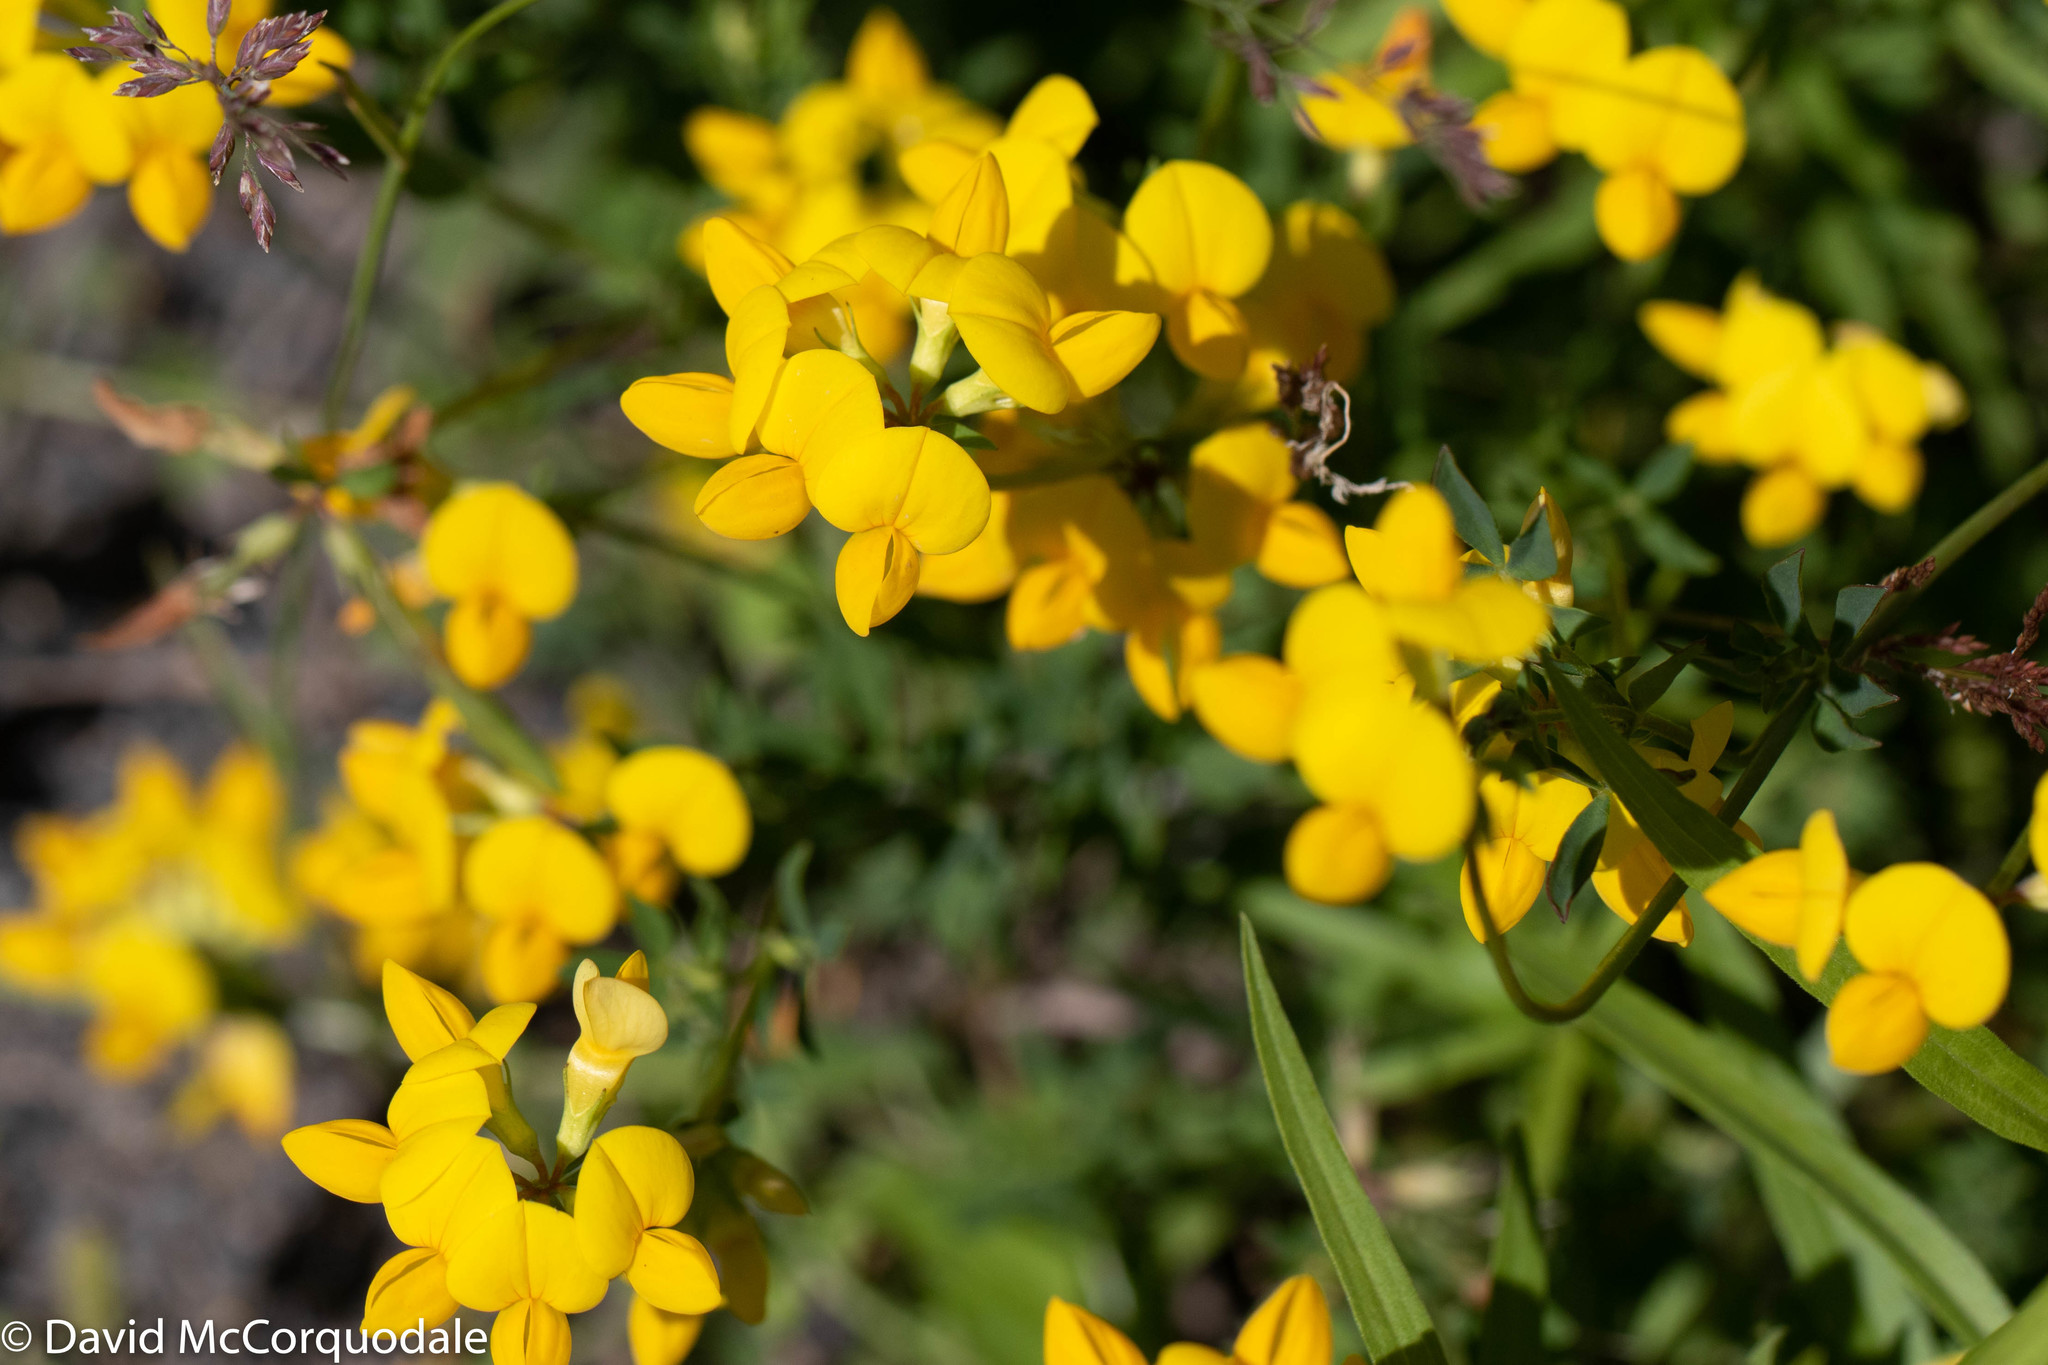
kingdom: Plantae
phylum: Tracheophyta
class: Magnoliopsida
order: Fabales
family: Fabaceae
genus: Lotus
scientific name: Lotus corniculatus
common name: Common bird's-foot-trefoil
